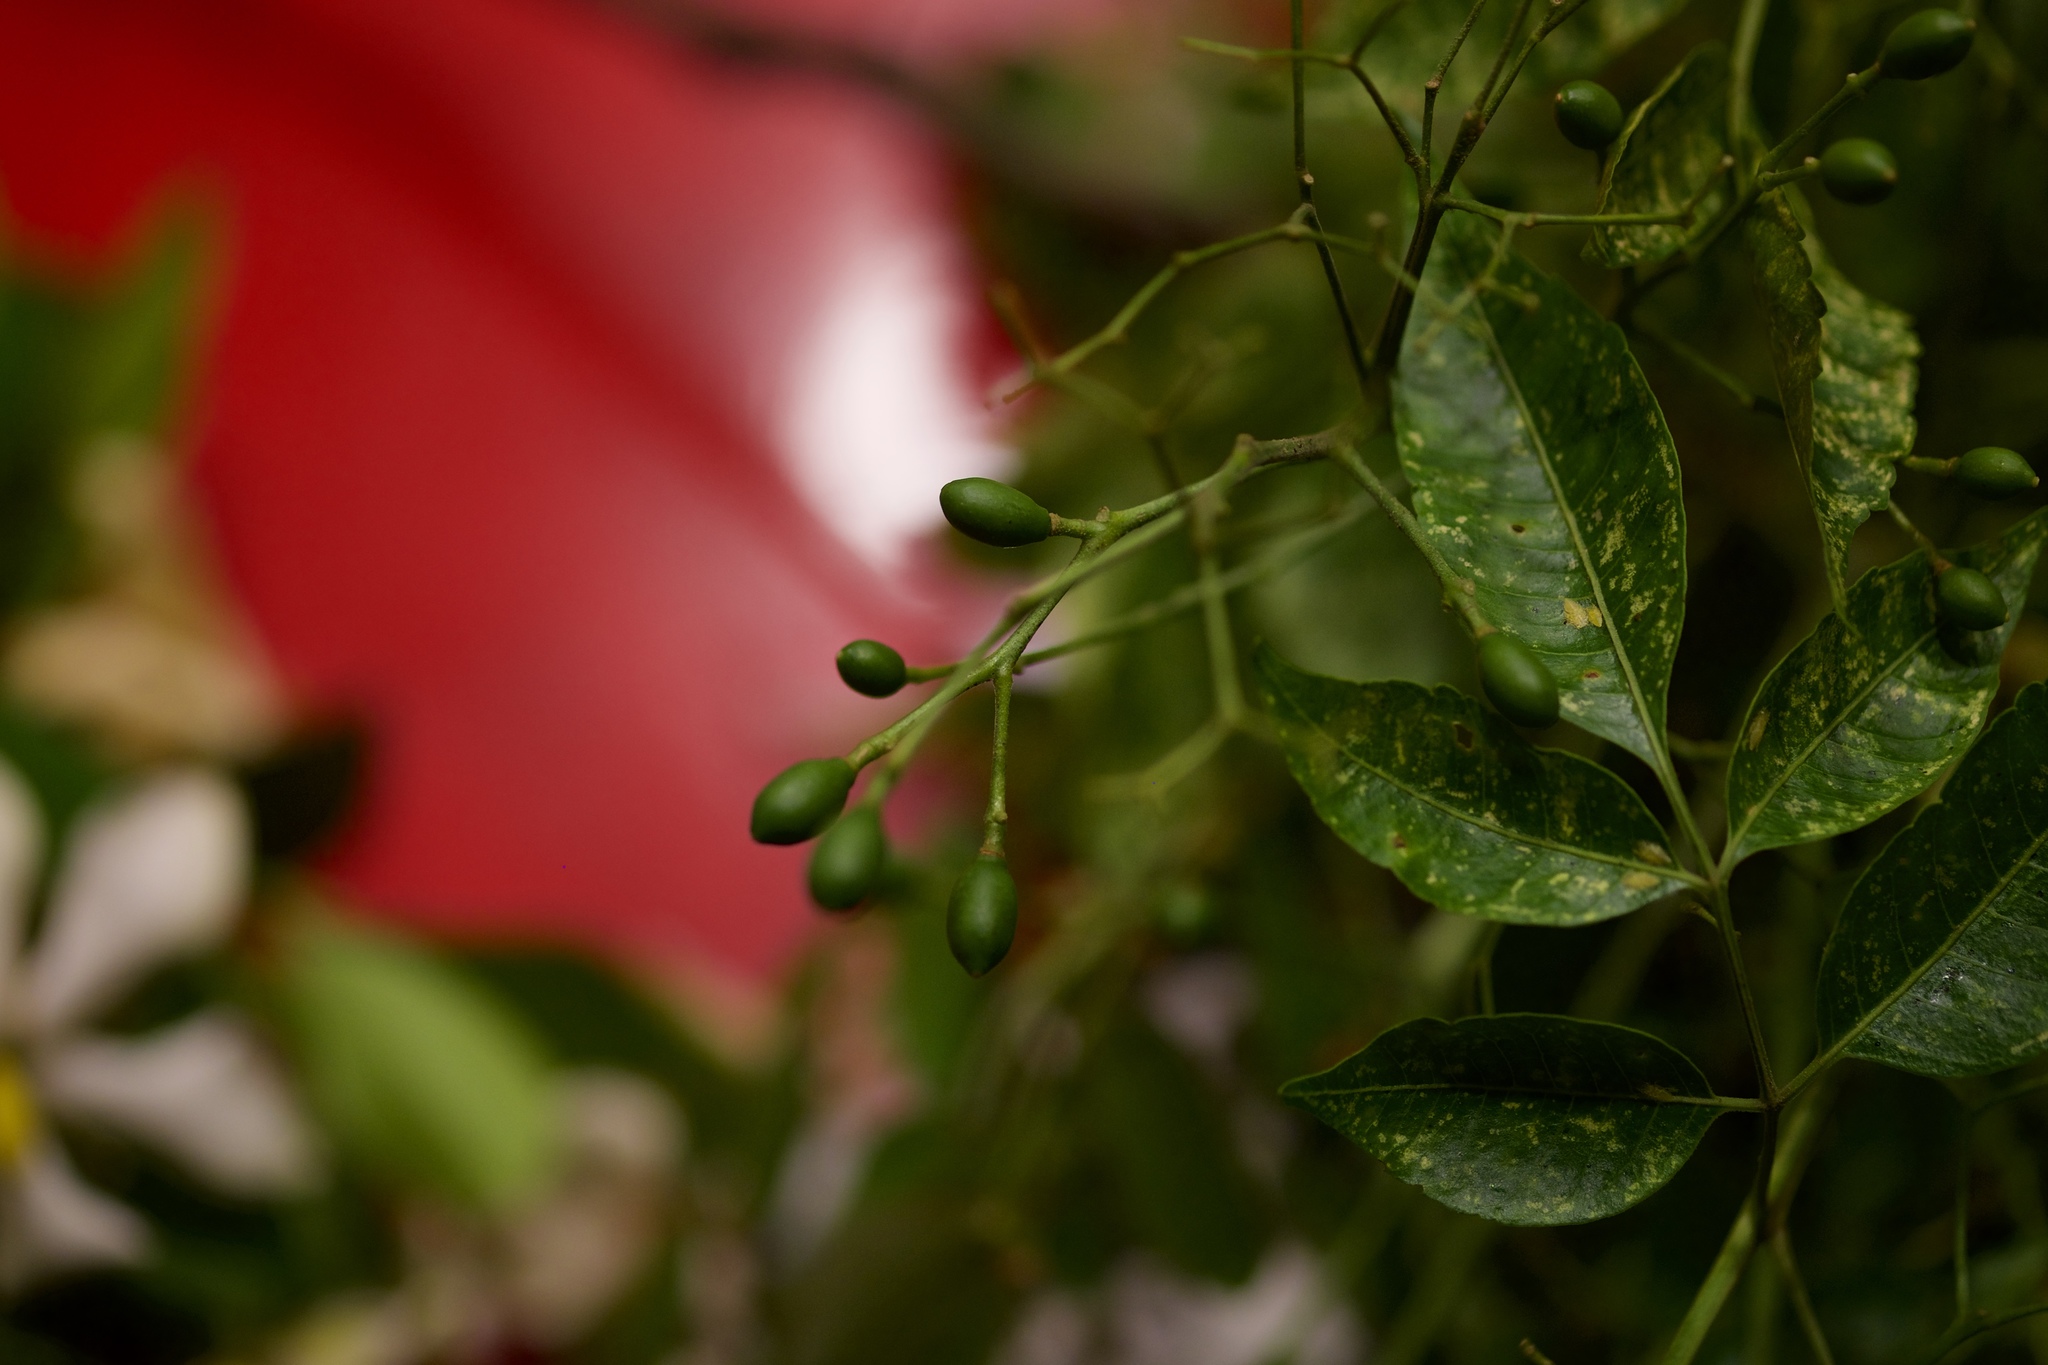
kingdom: Plantae
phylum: Tracheophyta
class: Magnoliopsida
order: Sapindales
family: Meliaceae
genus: Melia
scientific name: Melia azedarach
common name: Chinaberrytree
